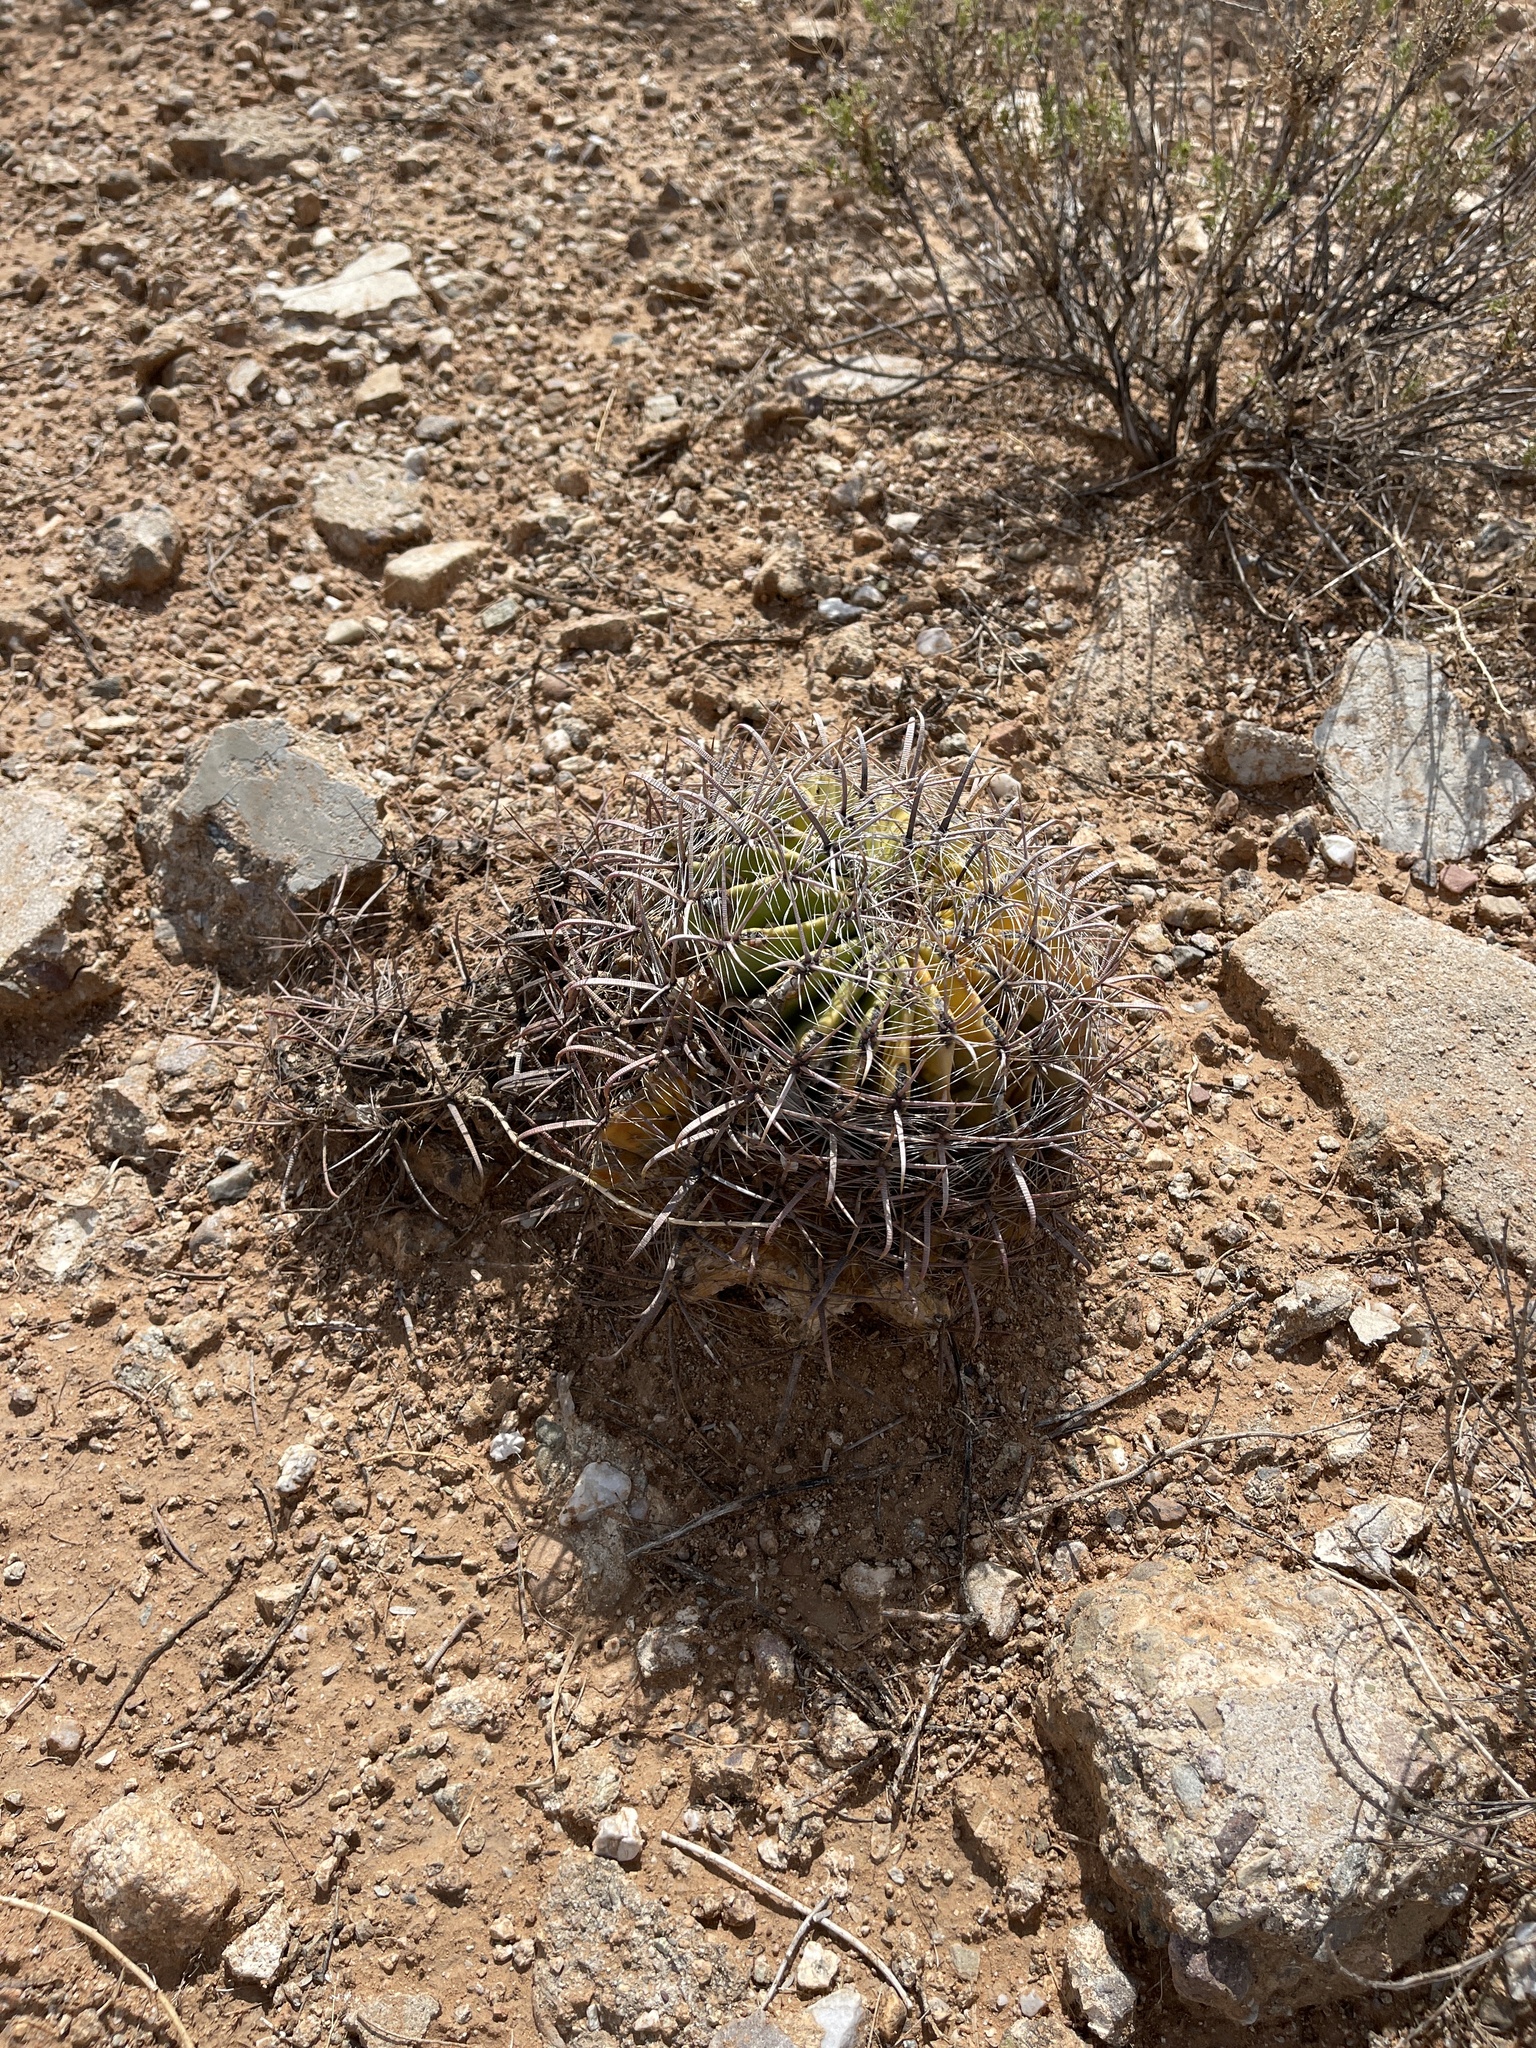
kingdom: Plantae
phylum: Tracheophyta
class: Magnoliopsida
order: Caryophyllales
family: Cactaceae
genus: Ferocactus
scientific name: Ferocactus wislizeni
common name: Candy barrel cactus
